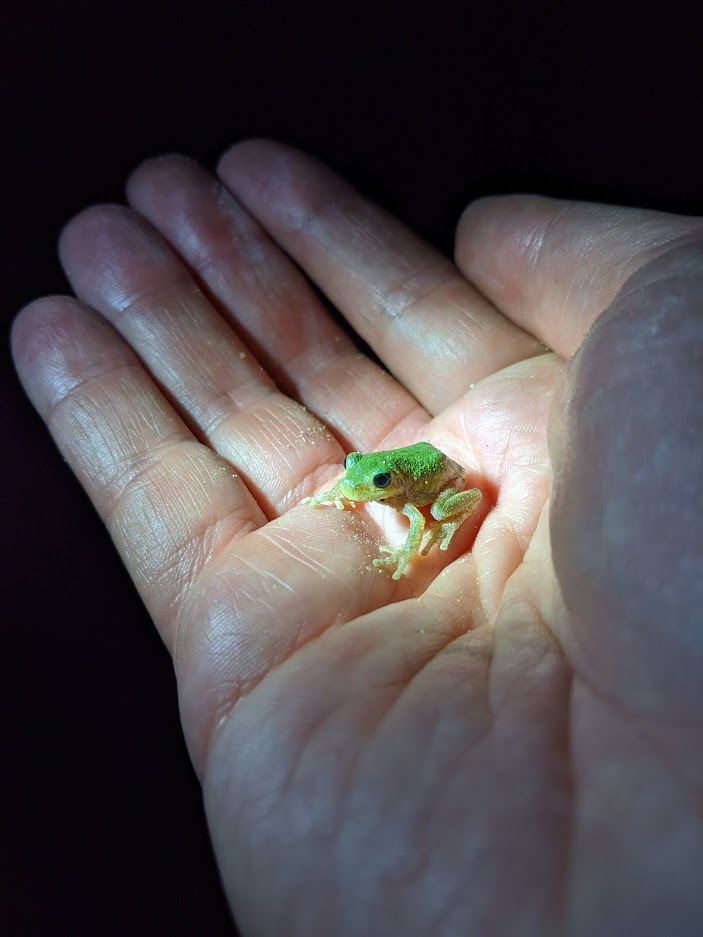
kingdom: Animalia
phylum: Chordata
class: Amphibia
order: Anura
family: Hylidae
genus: Hyla
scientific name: Hyla
